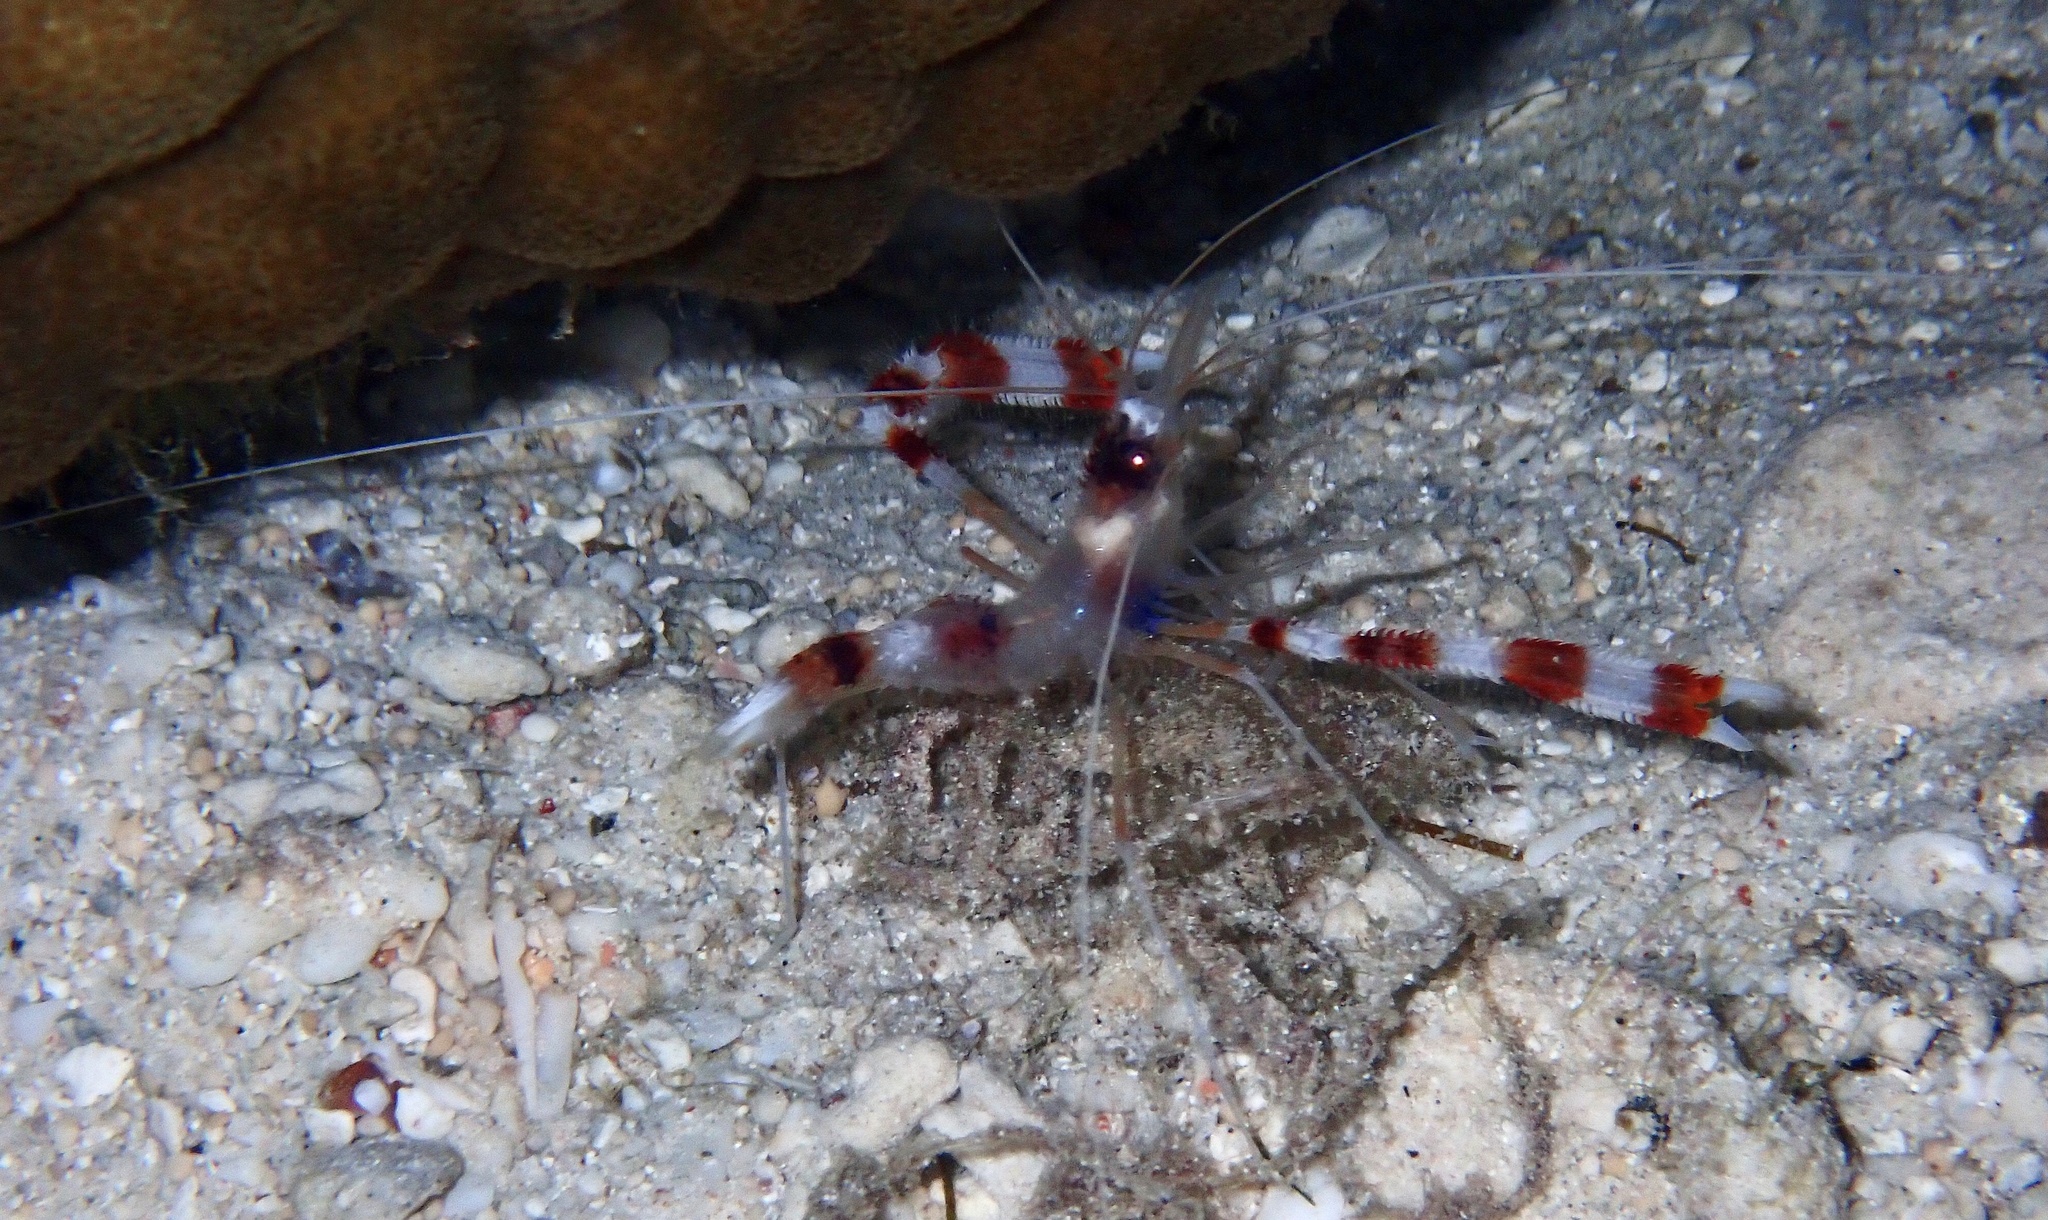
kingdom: Animalia
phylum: Arthropoda
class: Malacostraca
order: Decapoda
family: Stenopodidae
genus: Stenopus
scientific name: Stenopus hispidus
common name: Banded coral shrimp
